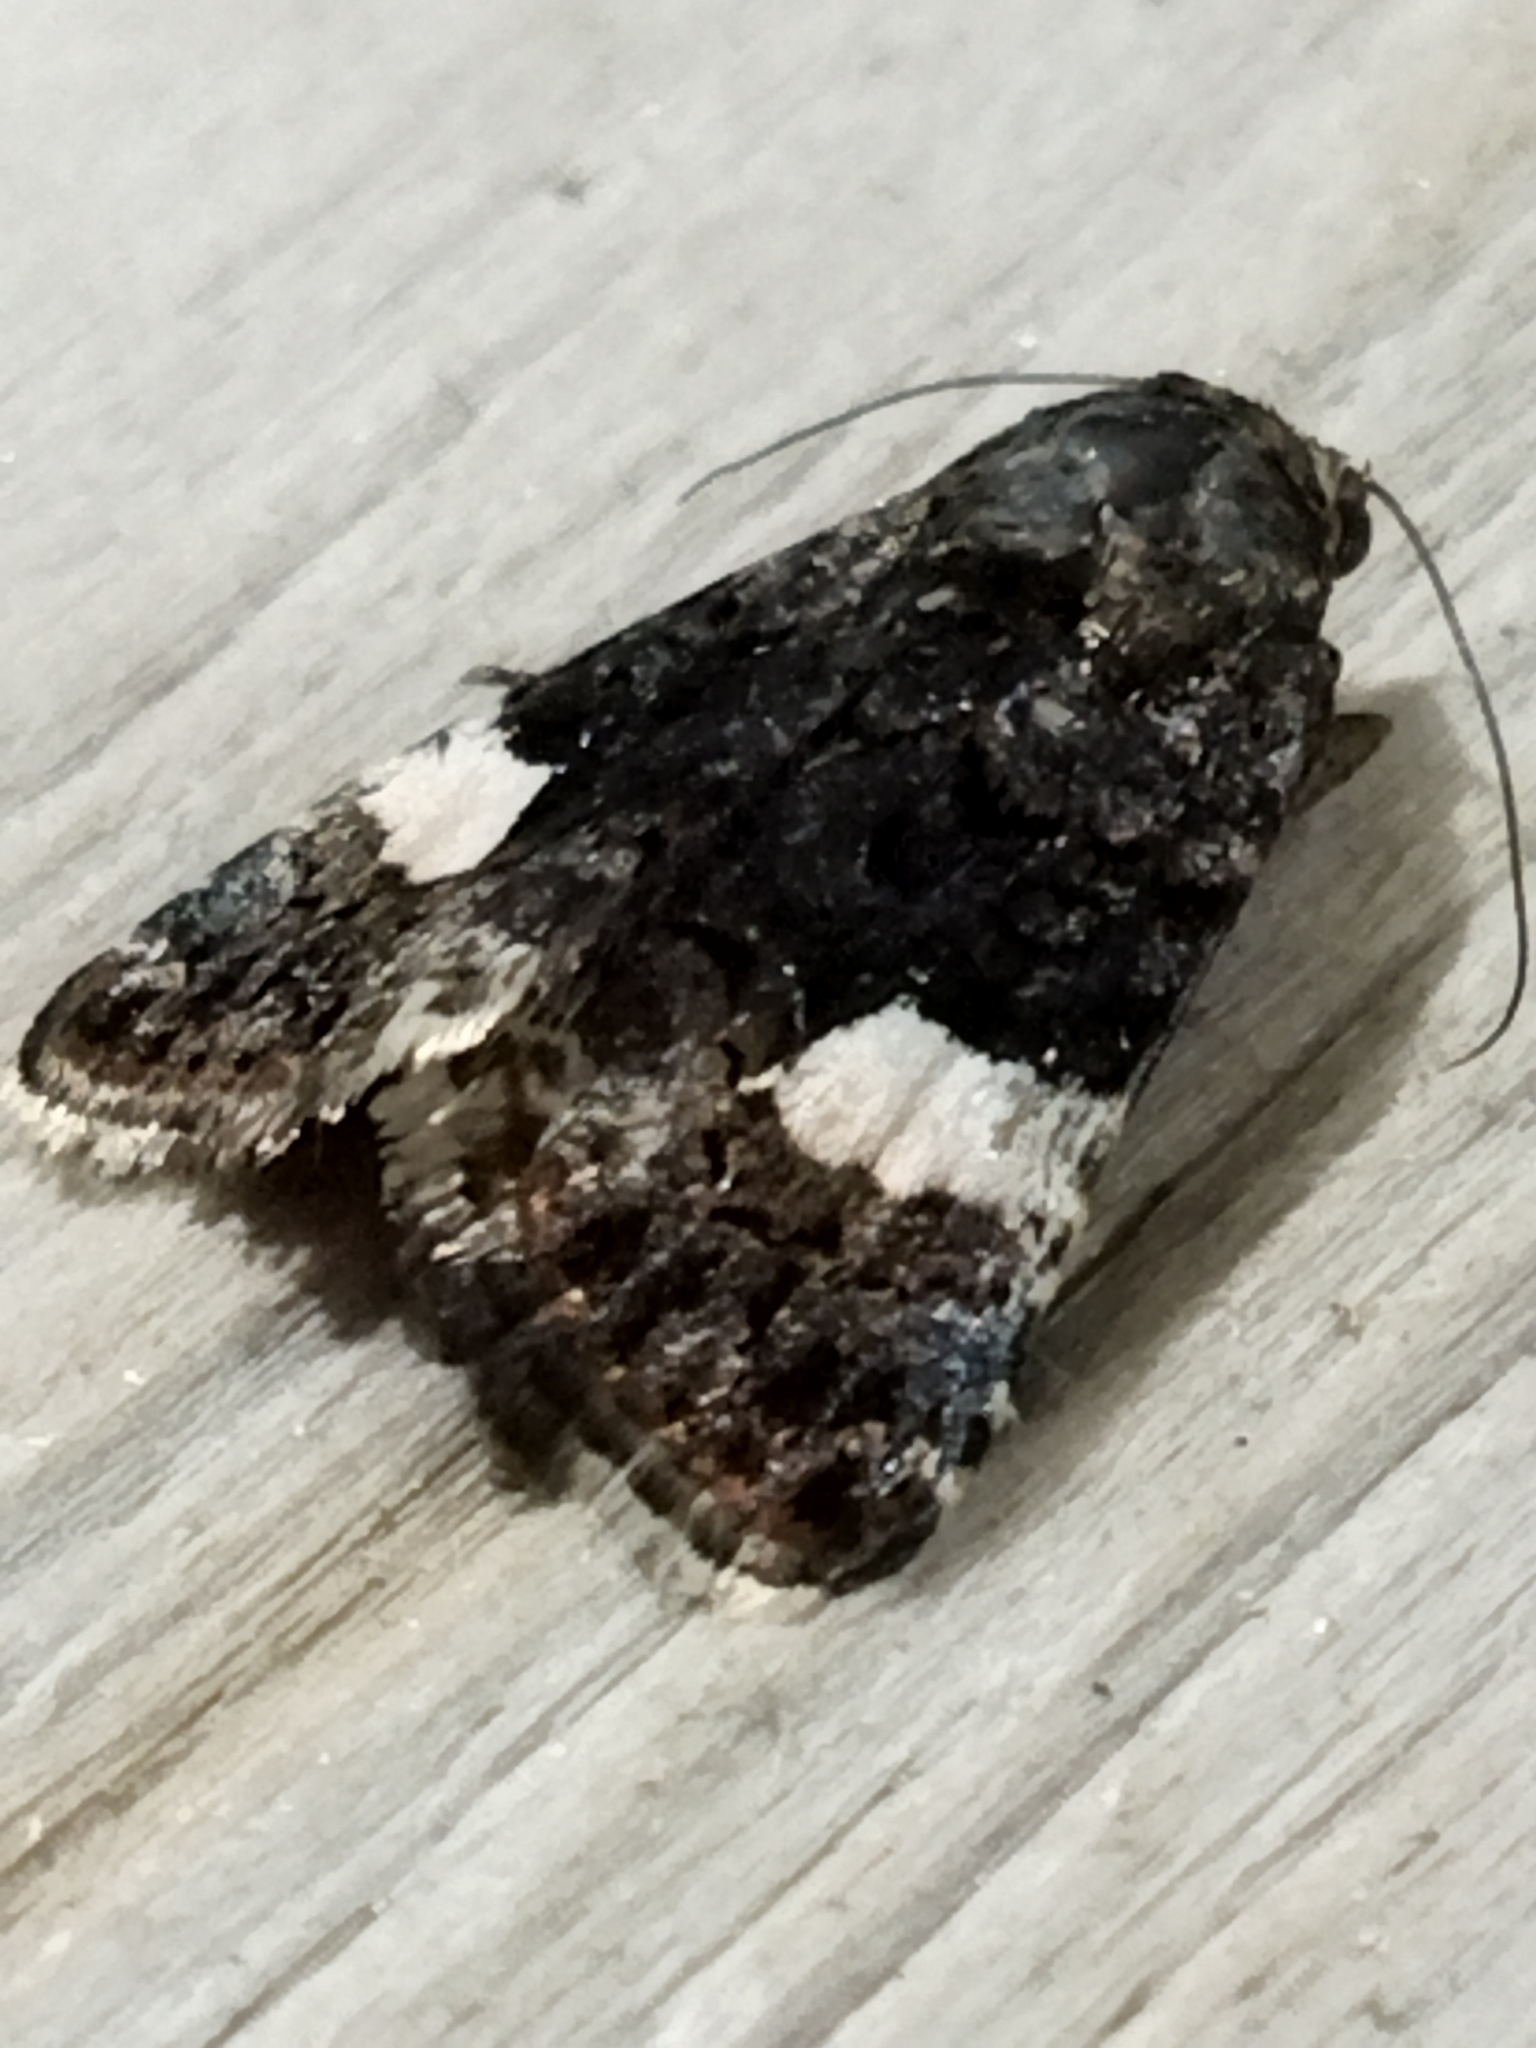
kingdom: Animalia
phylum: Arthropoda
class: Insecta
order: Lepidoptera
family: Erebidae
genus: Tyta
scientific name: Tyta luctuosa
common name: Four-spotted
